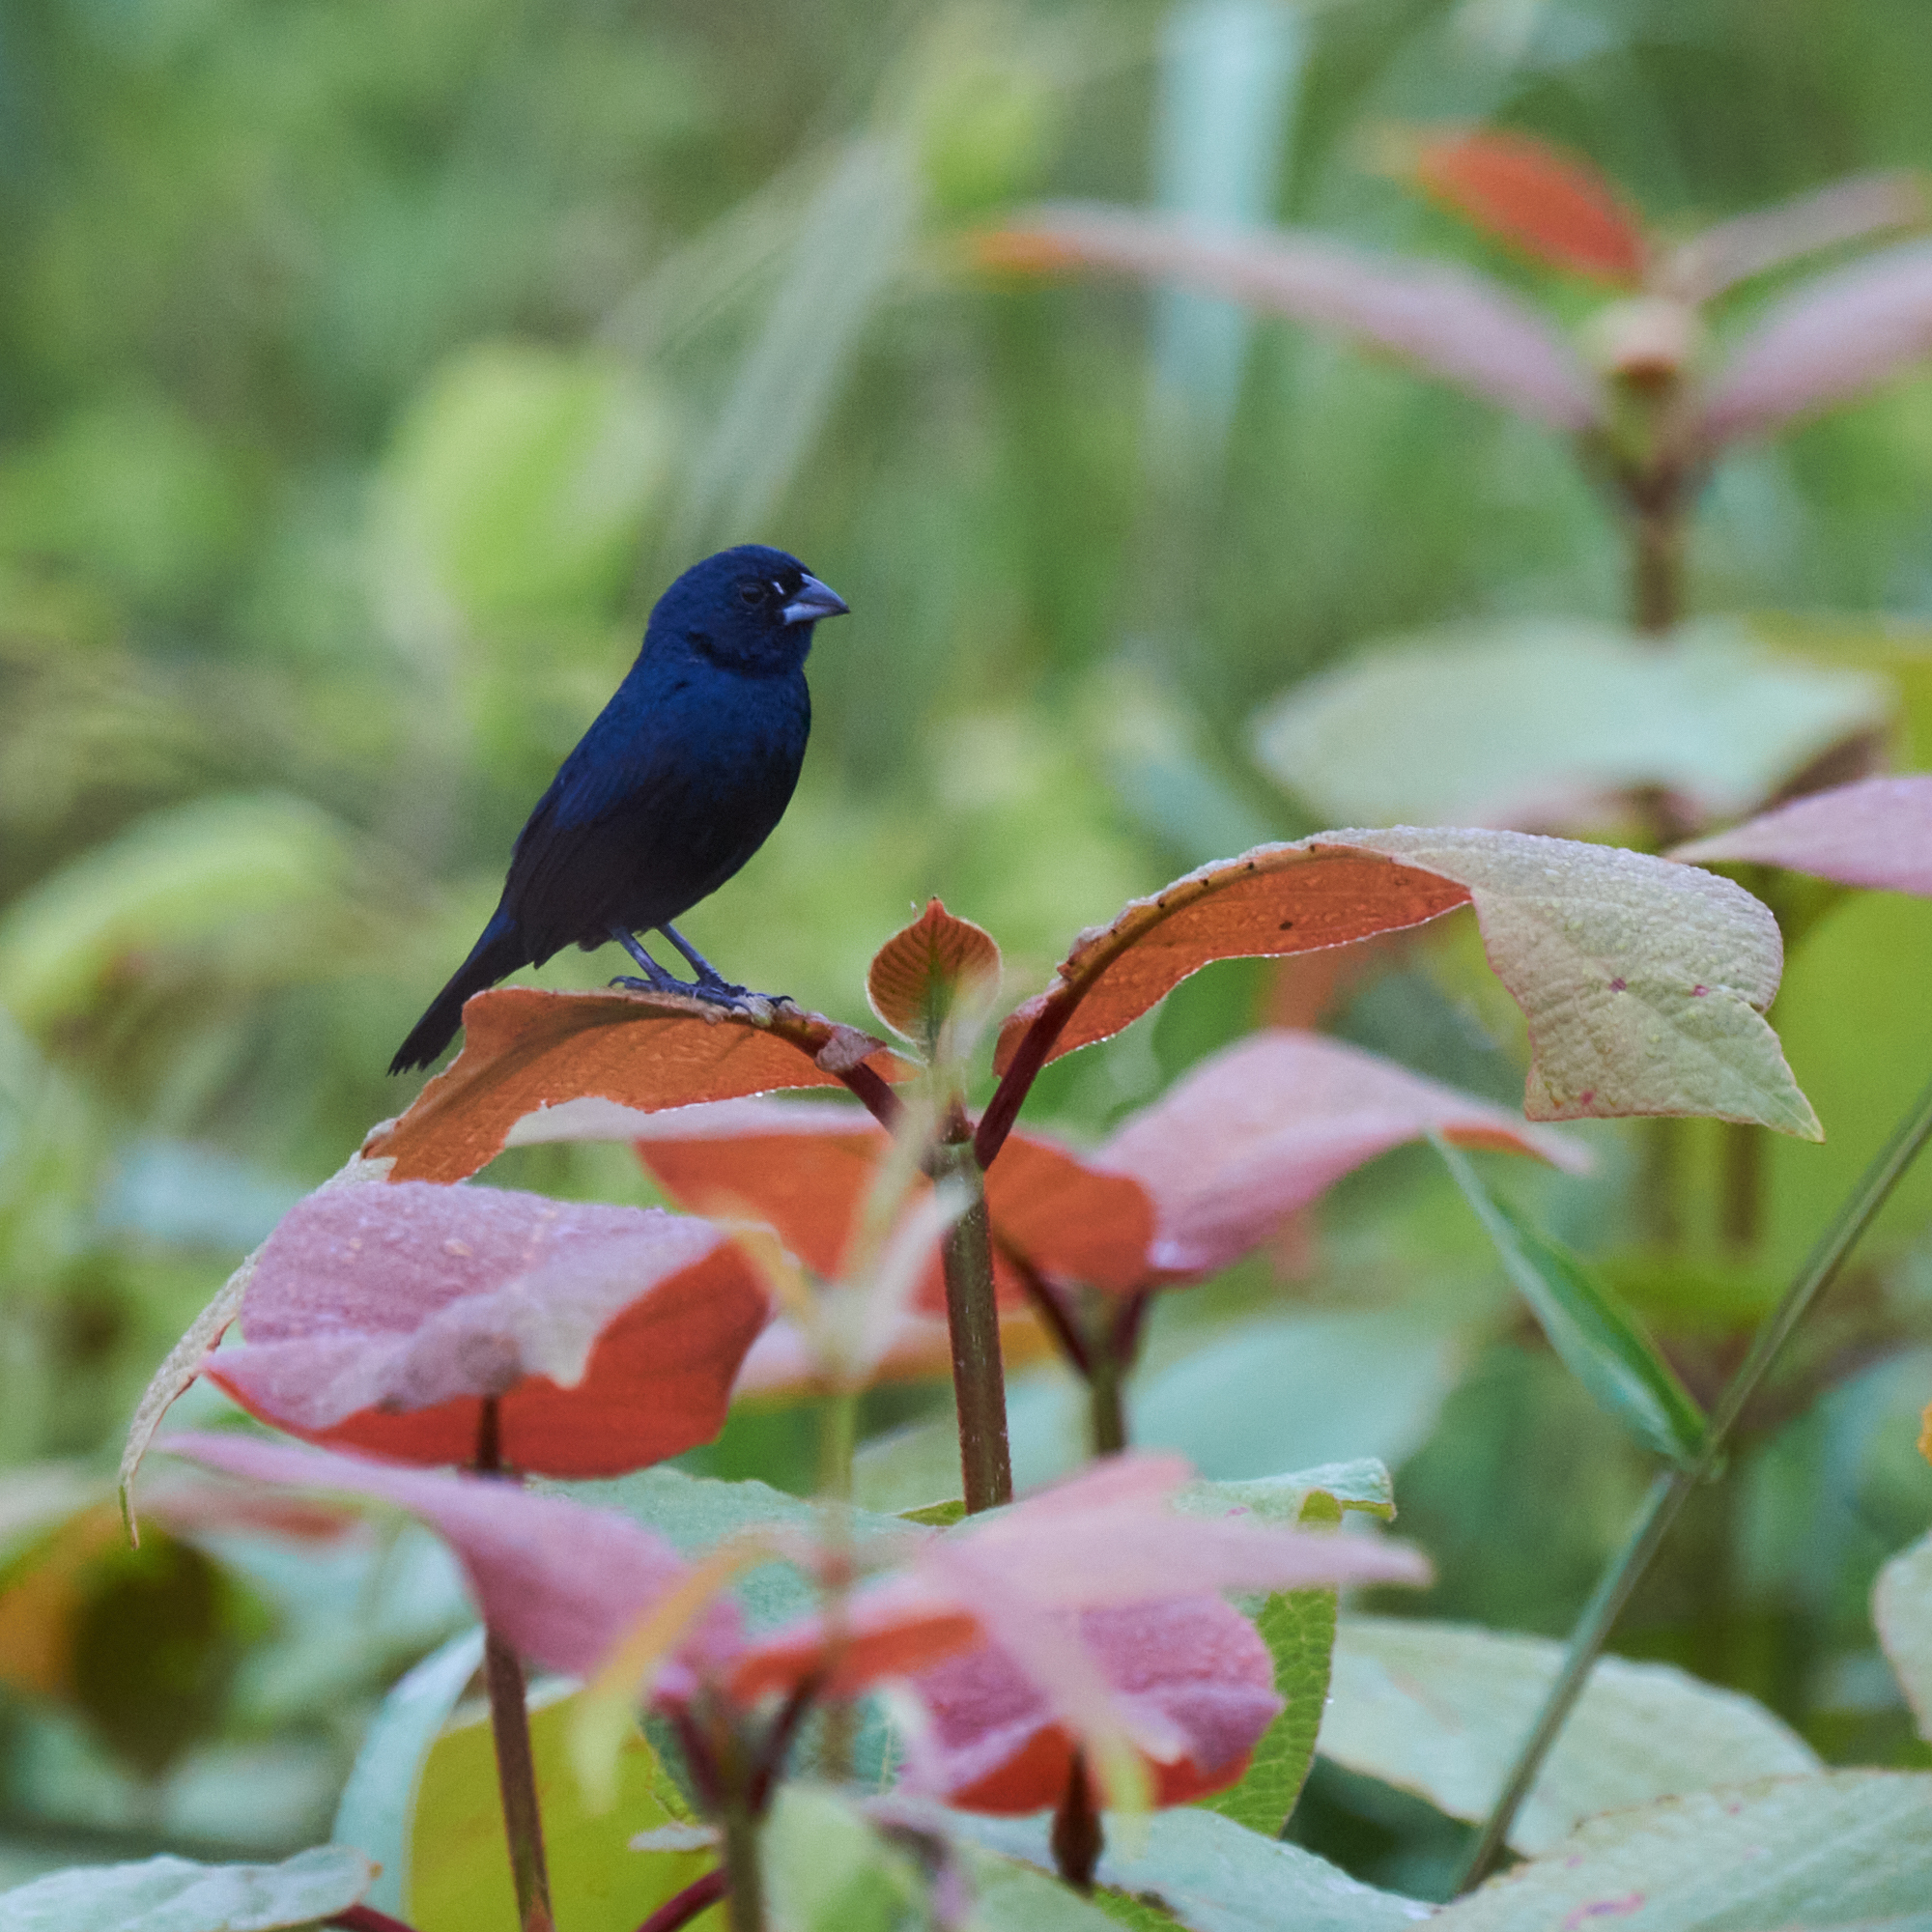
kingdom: Animalia
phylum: Chordata
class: Aves
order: Passeriformes
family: Thraupidae
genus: Volatinia
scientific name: Volatinia jacarina
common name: Blue-black grassquit
